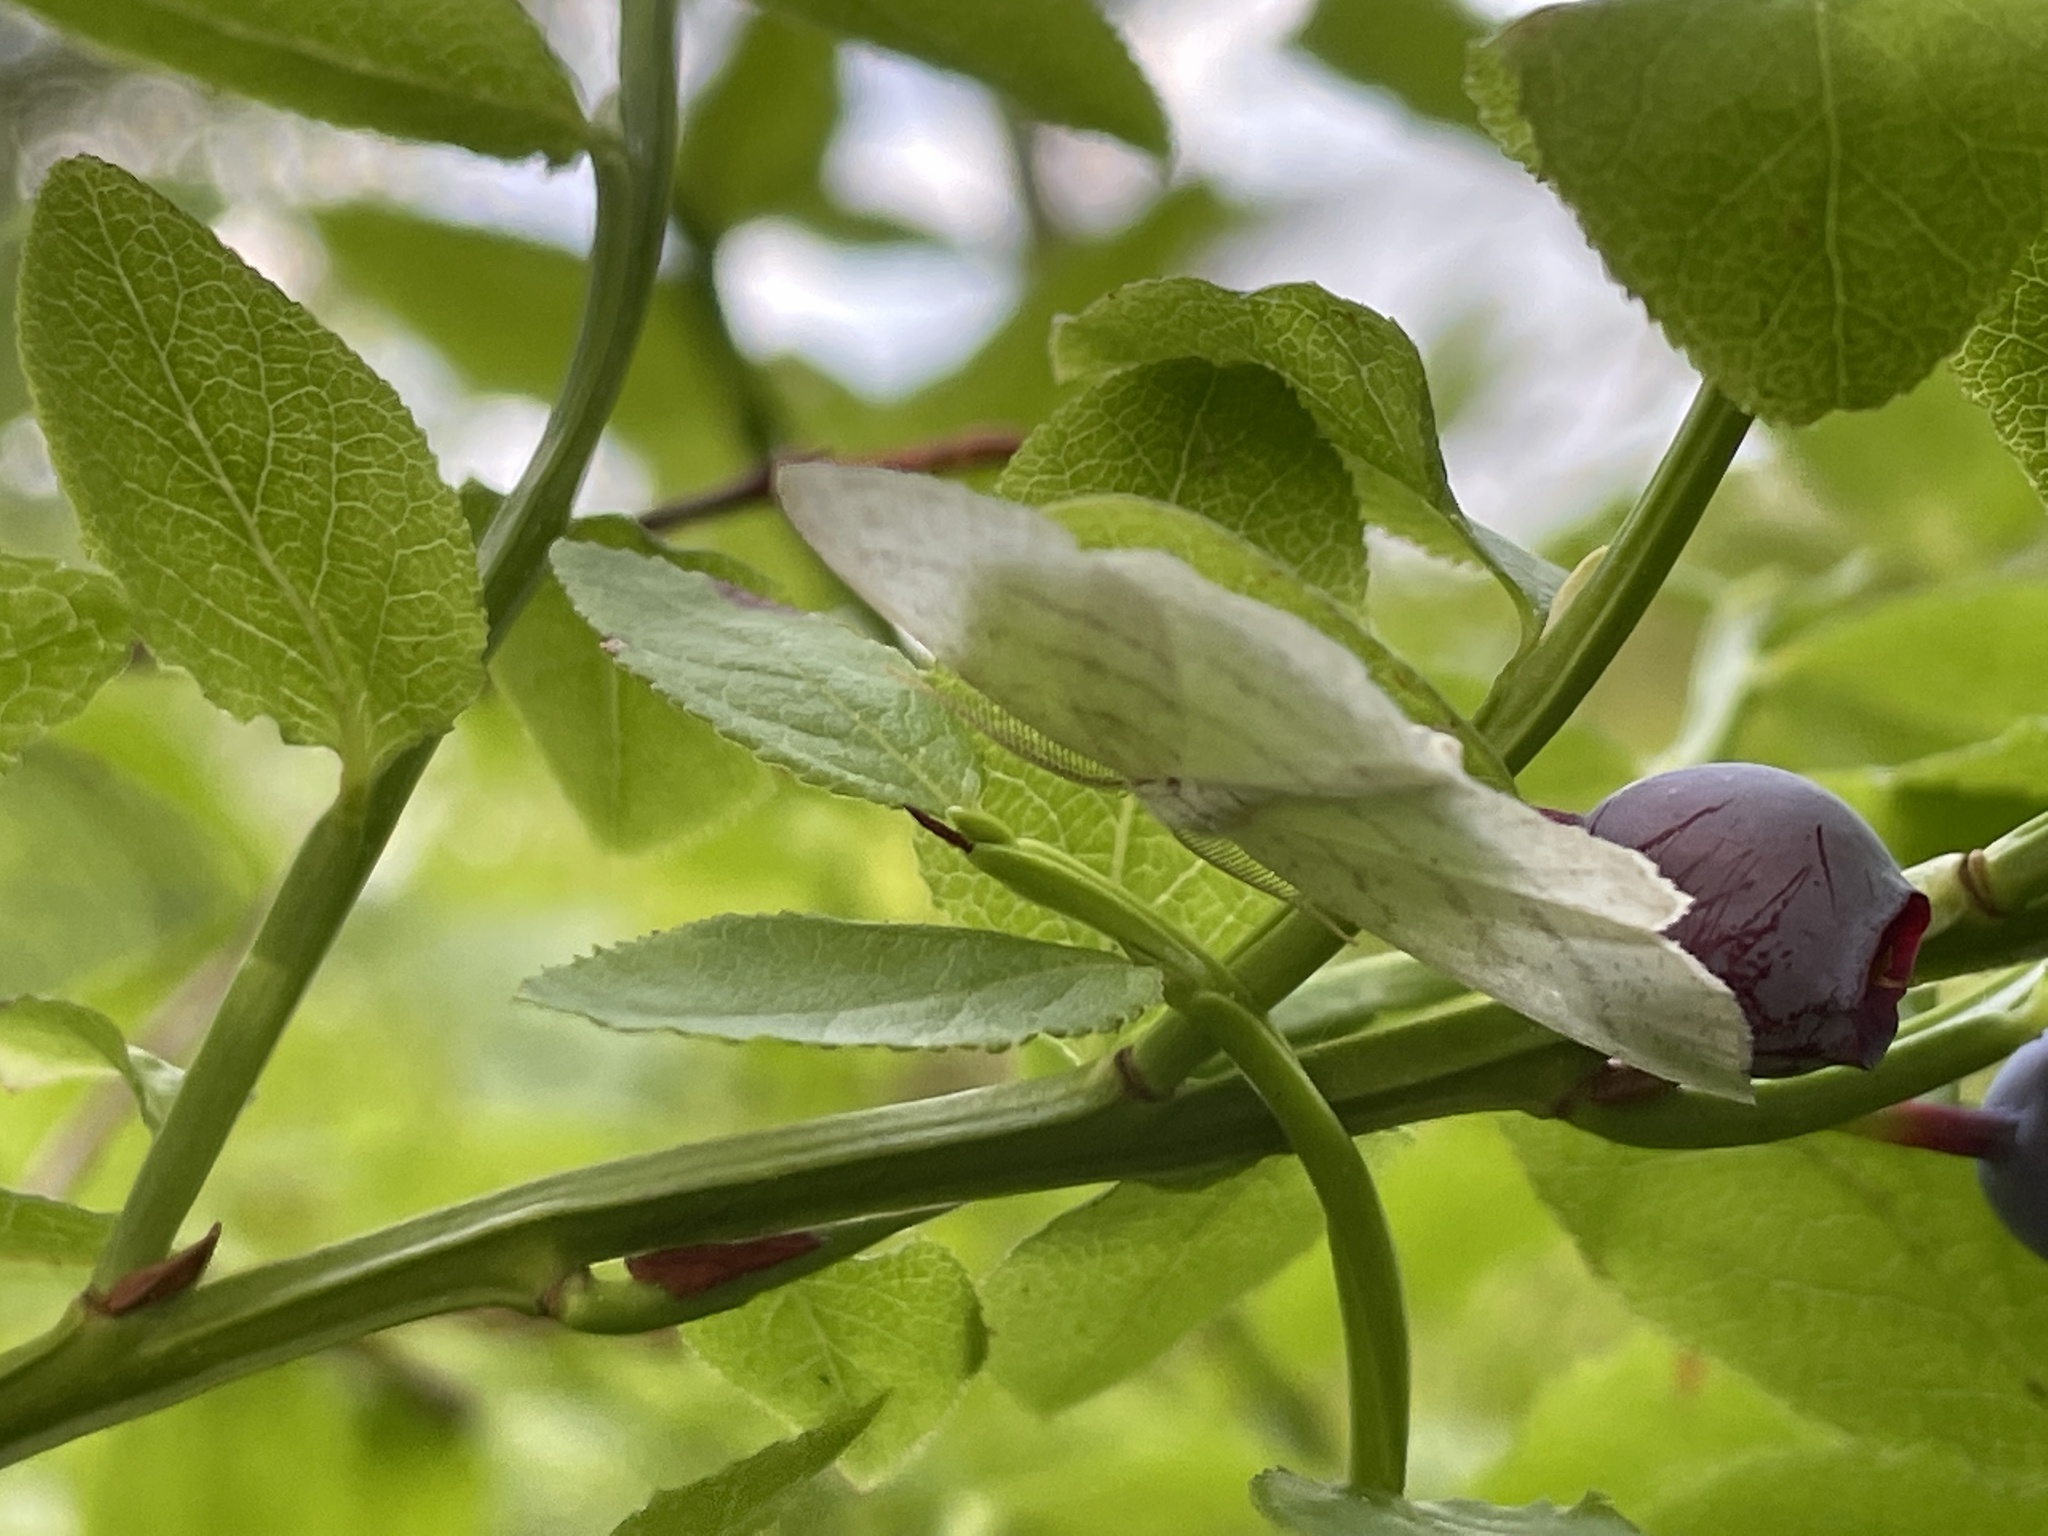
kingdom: Animalia
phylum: Arthropoda
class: Insecta
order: Lepidoptera
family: Geometridae
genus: Cabera
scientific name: Cabera pusaria
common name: Common white wave
